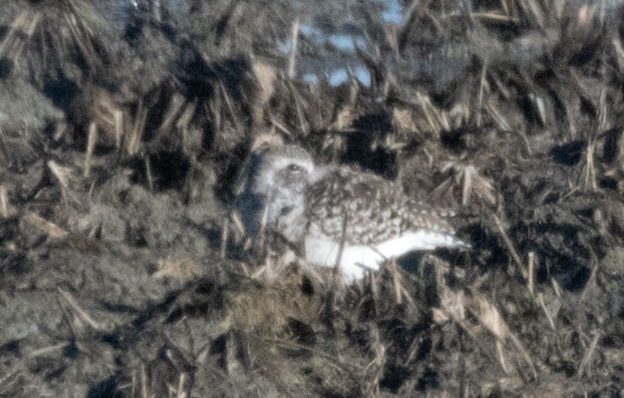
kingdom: Animalia
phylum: Chordata
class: Aves
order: Charadriiformes
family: Charadriidae
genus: Pluvialis
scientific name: Pluvialis squatarola
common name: Grey plover
